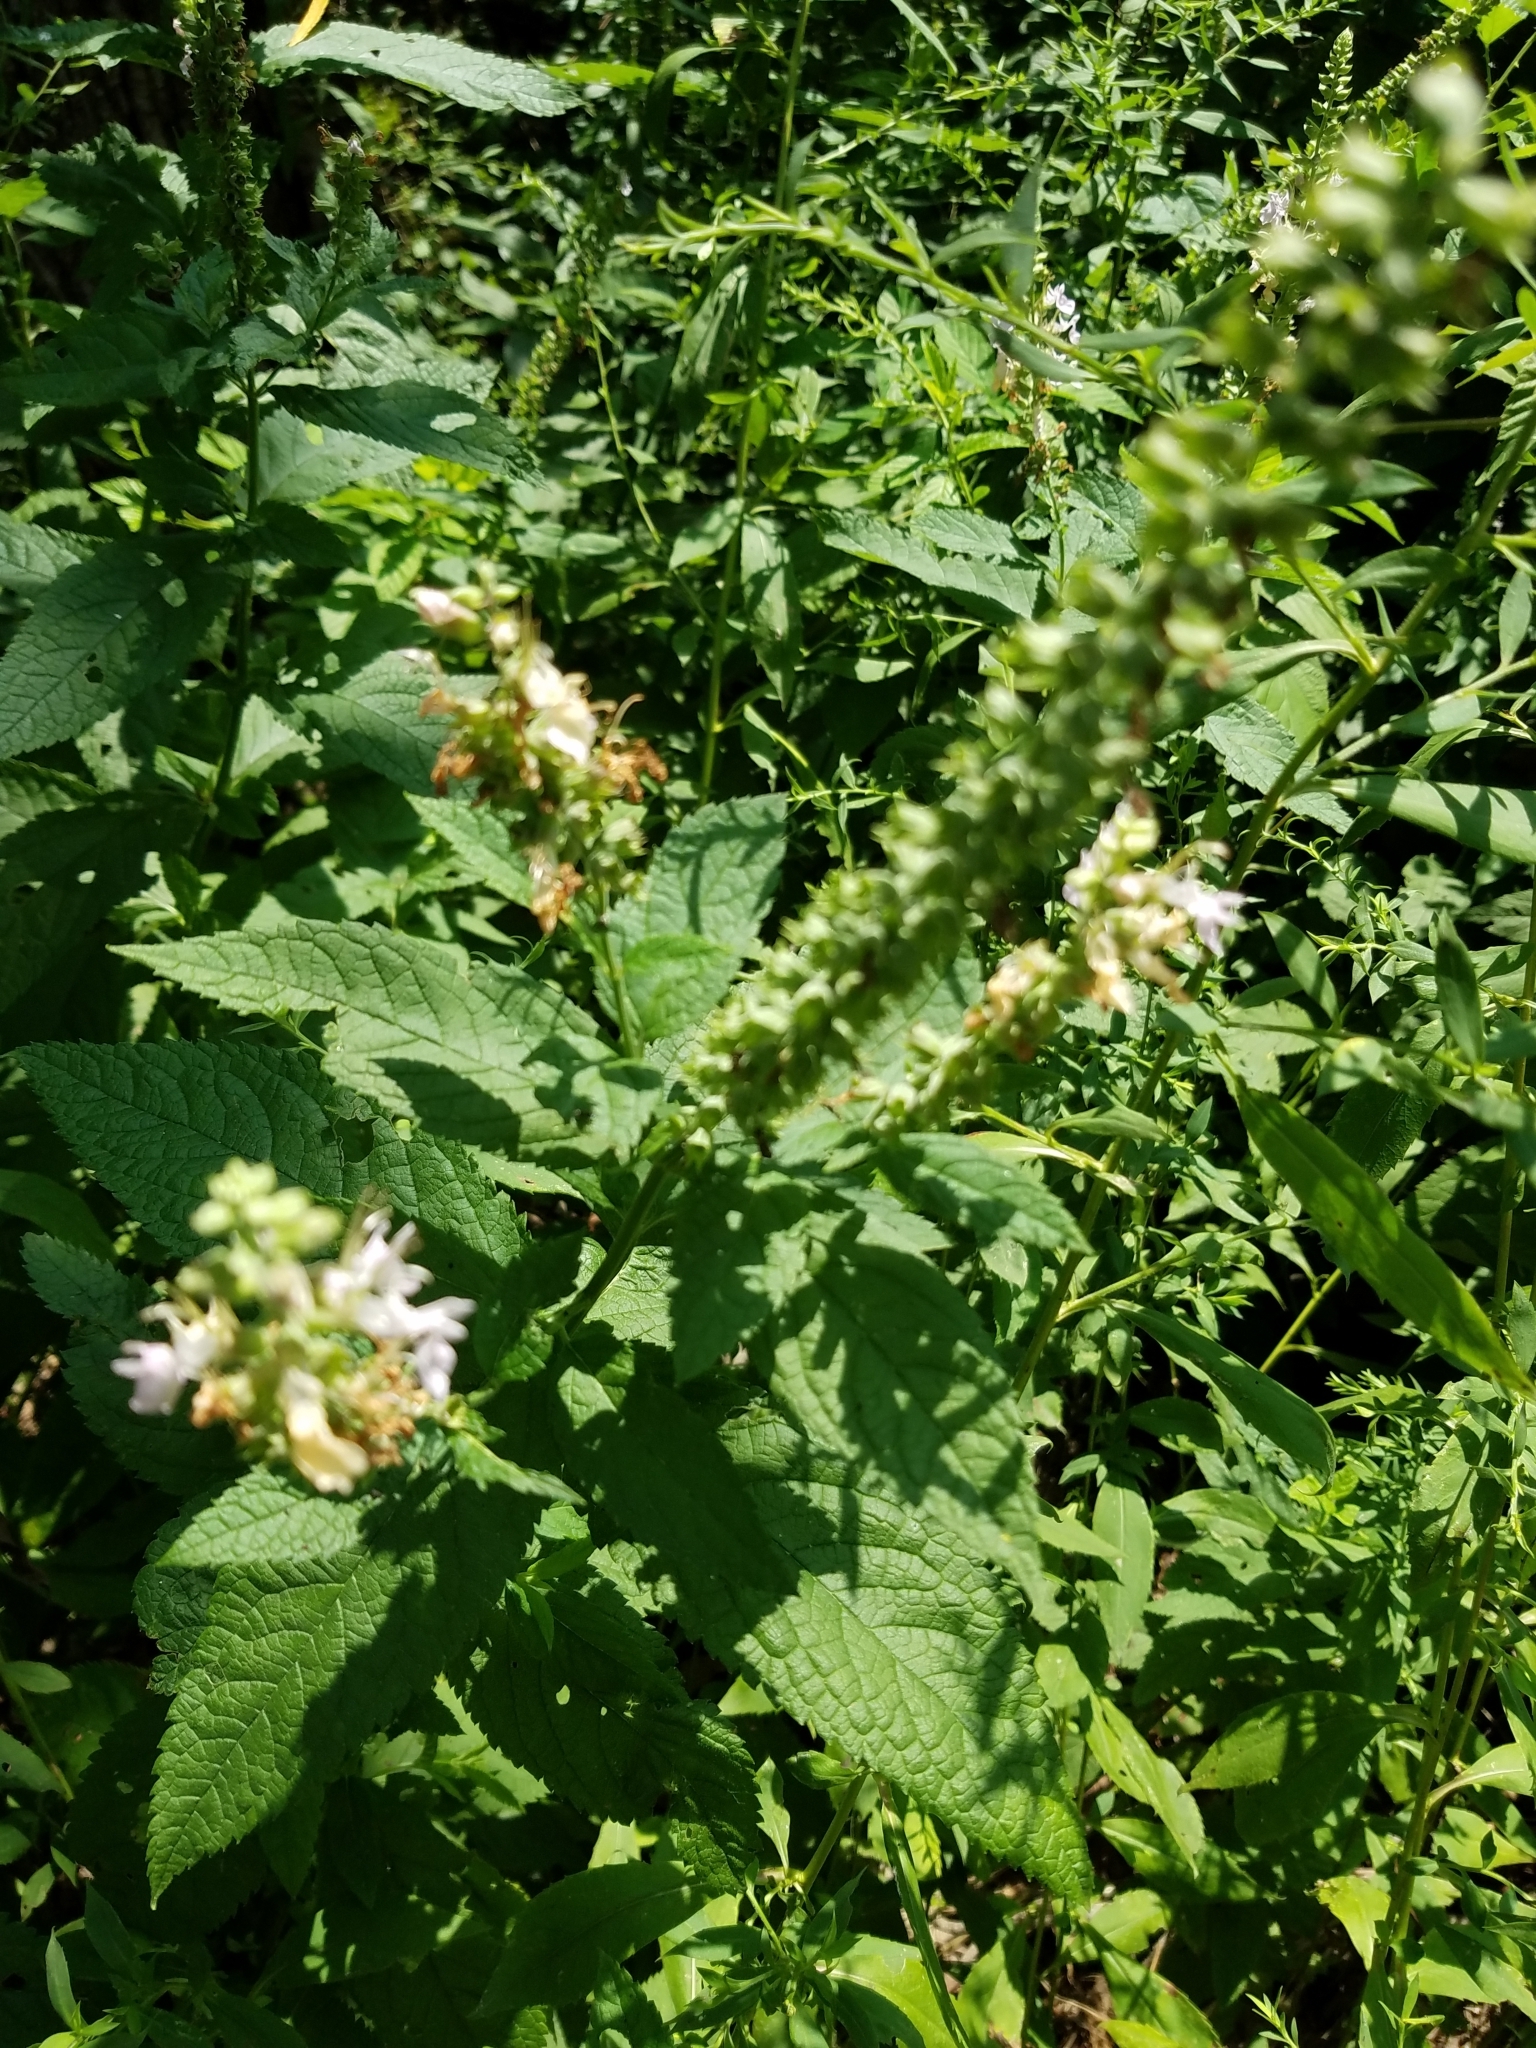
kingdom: Plantae
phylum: Tracheophyta
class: Magnoliopsida
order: Lamiales
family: Lamiaceae
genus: Teucrium
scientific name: Teucrium canadense
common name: American germander
